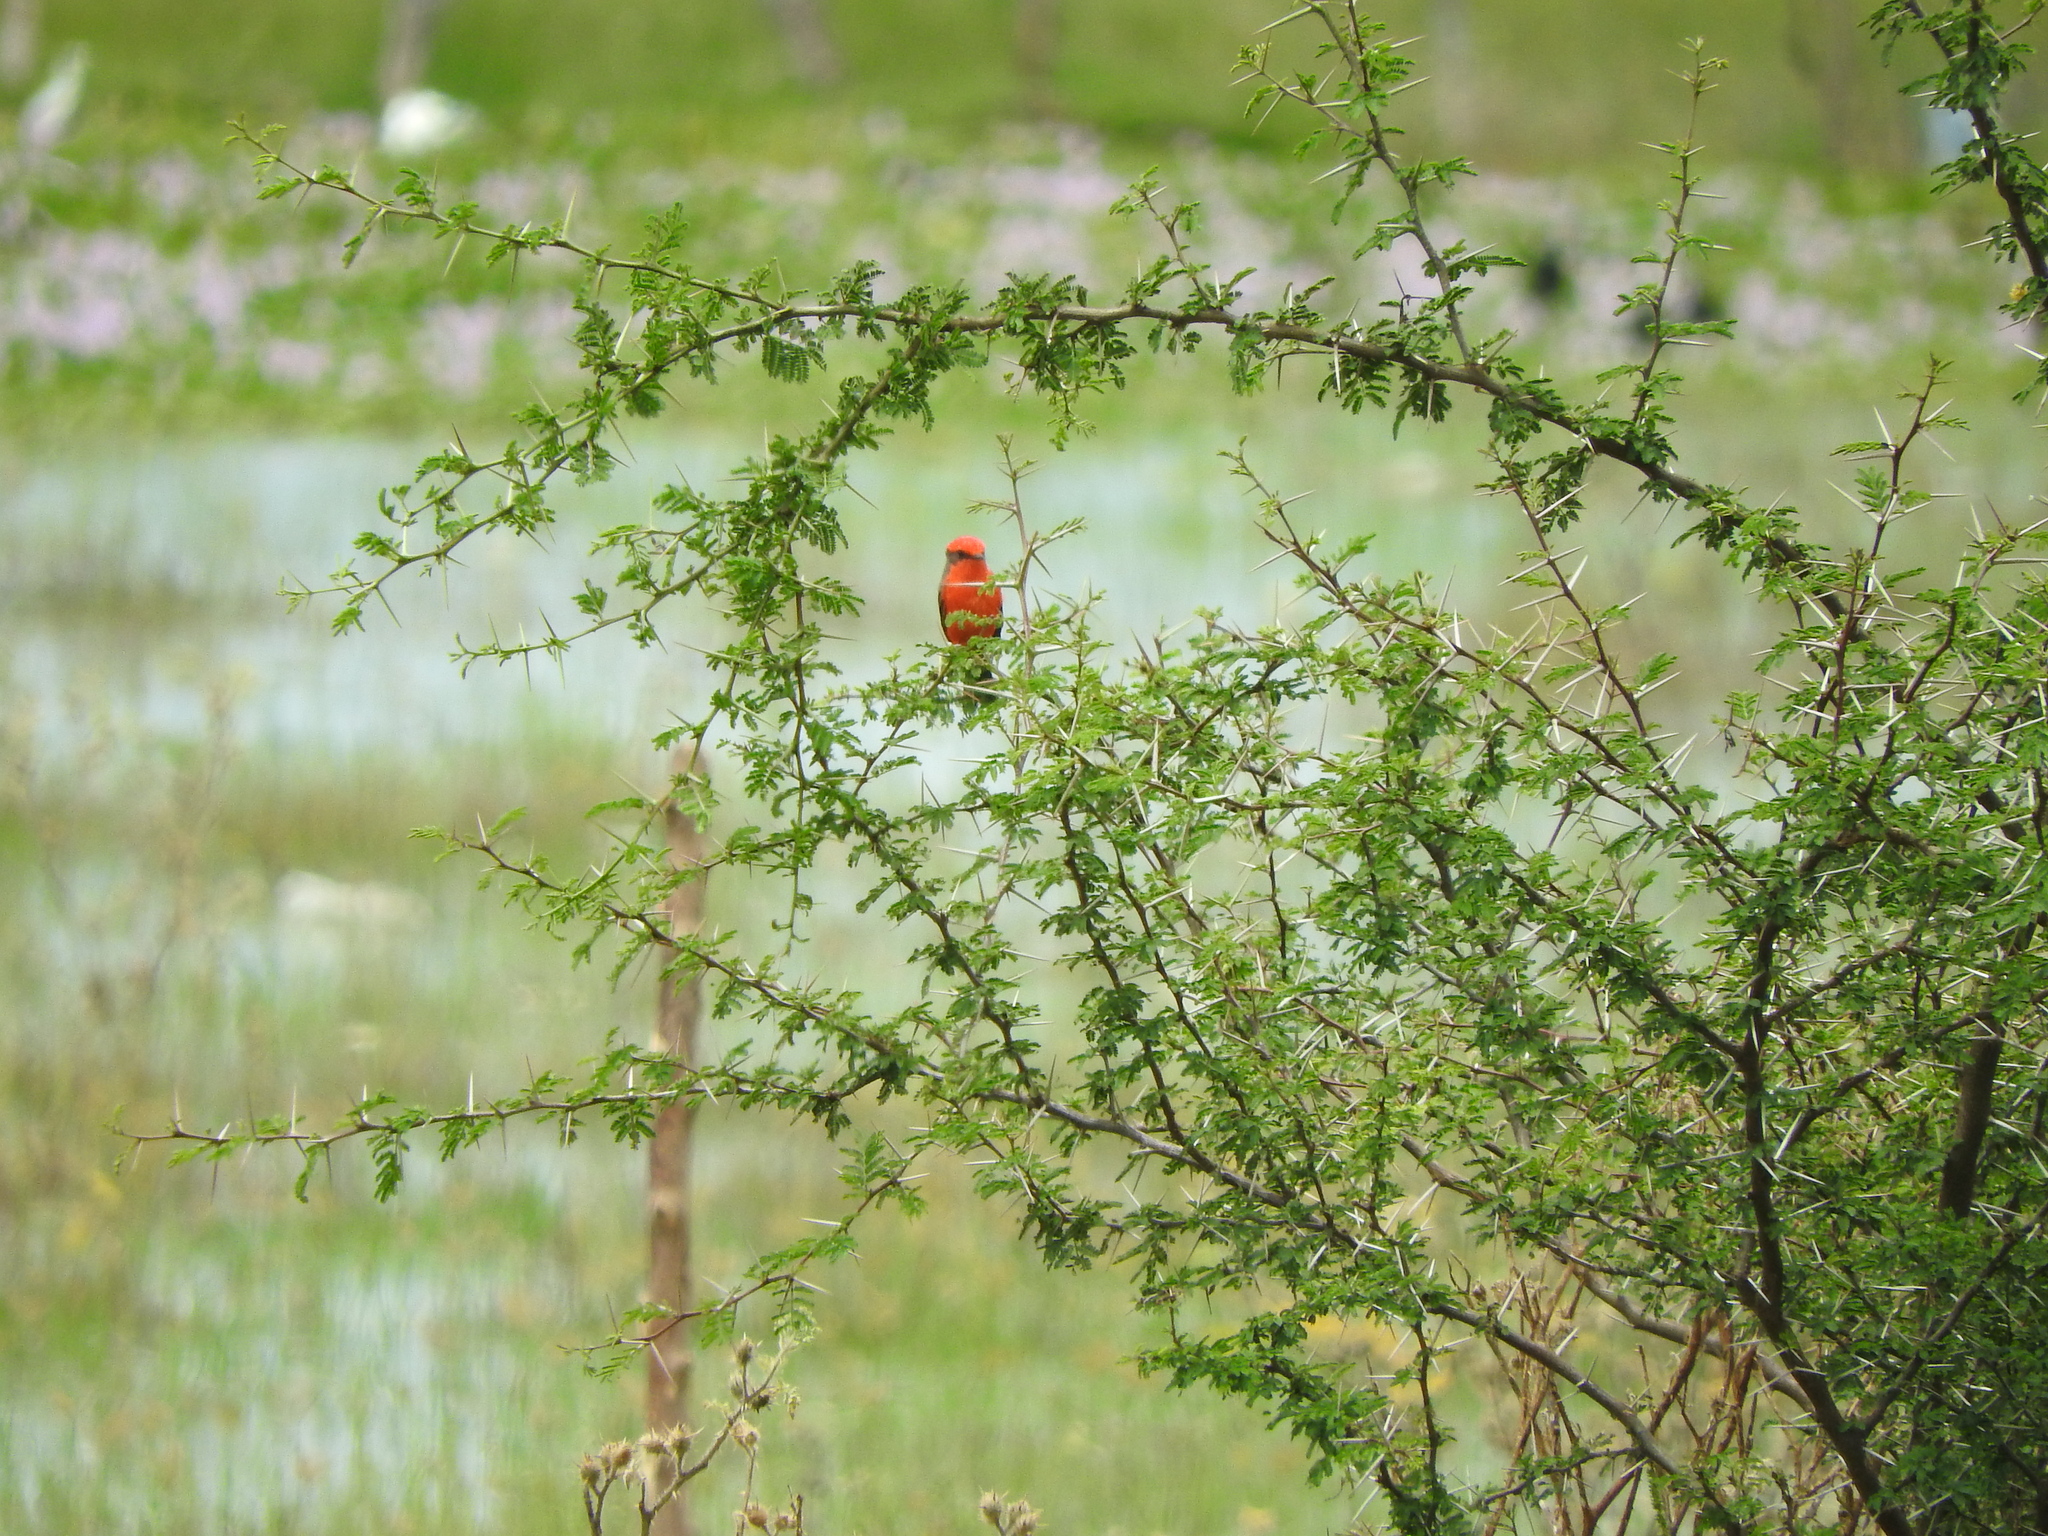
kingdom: Animalia
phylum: Chordata
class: Aves
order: Passeriformes
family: Tyrannidae
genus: Pyrocephalus
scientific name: Pyrocephalus rubinus
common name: Vermilion flycatcher
